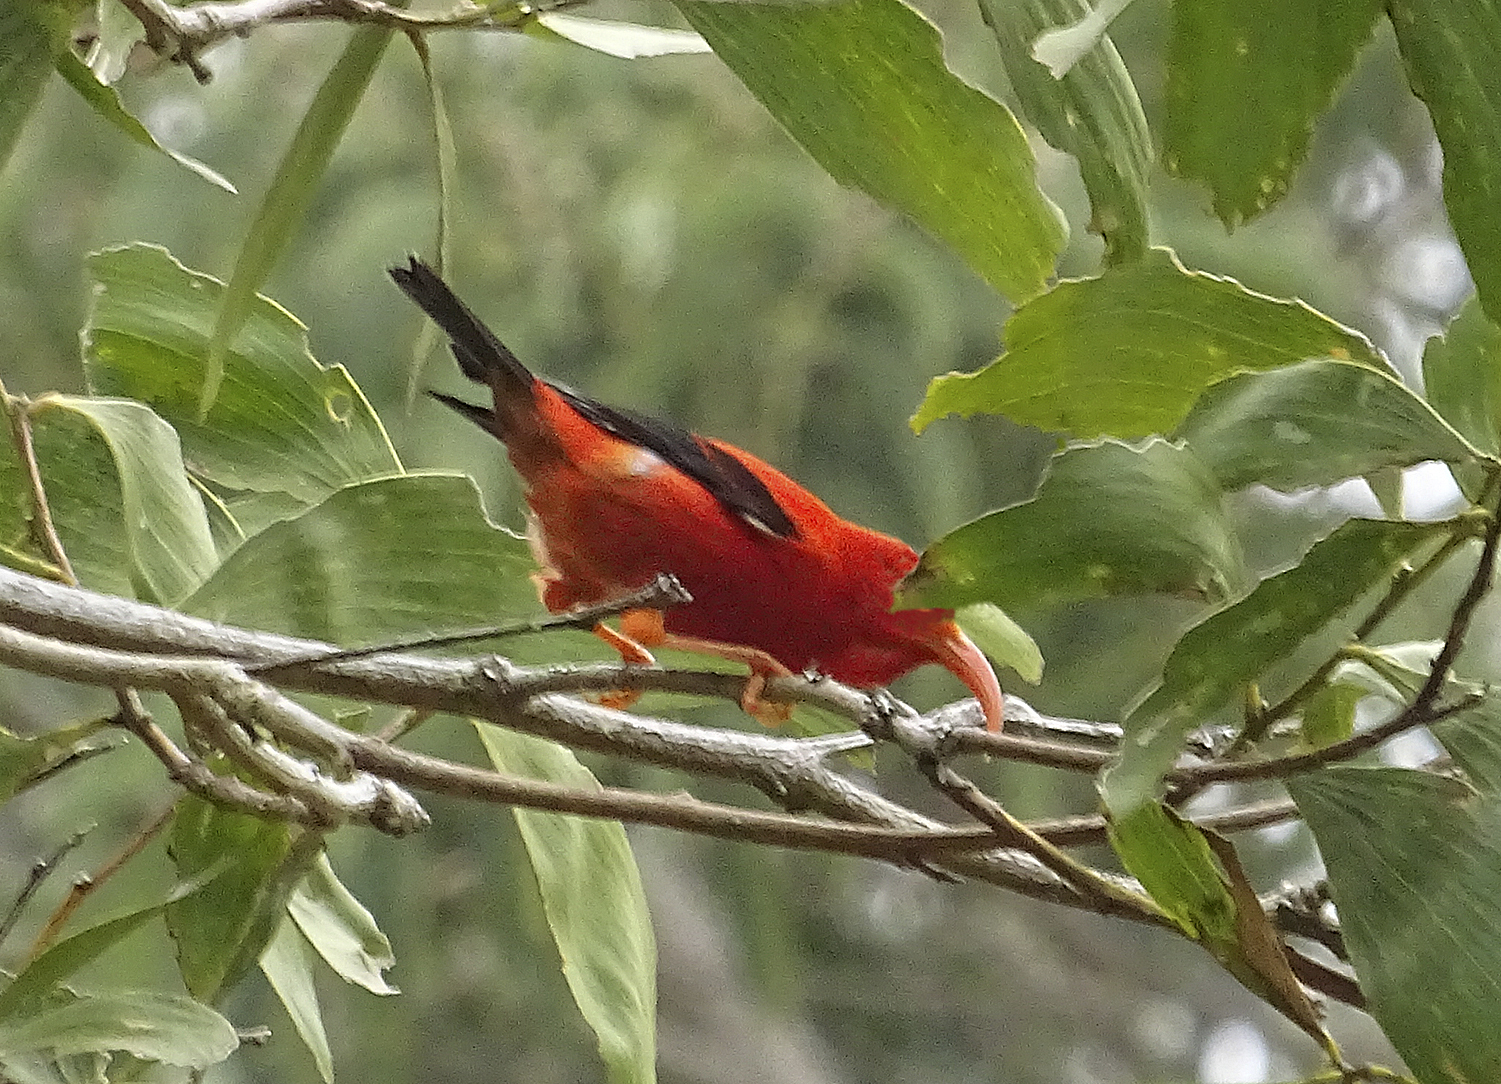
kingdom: Animalia
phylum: Chordata
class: Aves
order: Passeriformes
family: Fringillidae
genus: Vestiaria
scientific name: Vestiaria coccinea
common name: Iiwi
